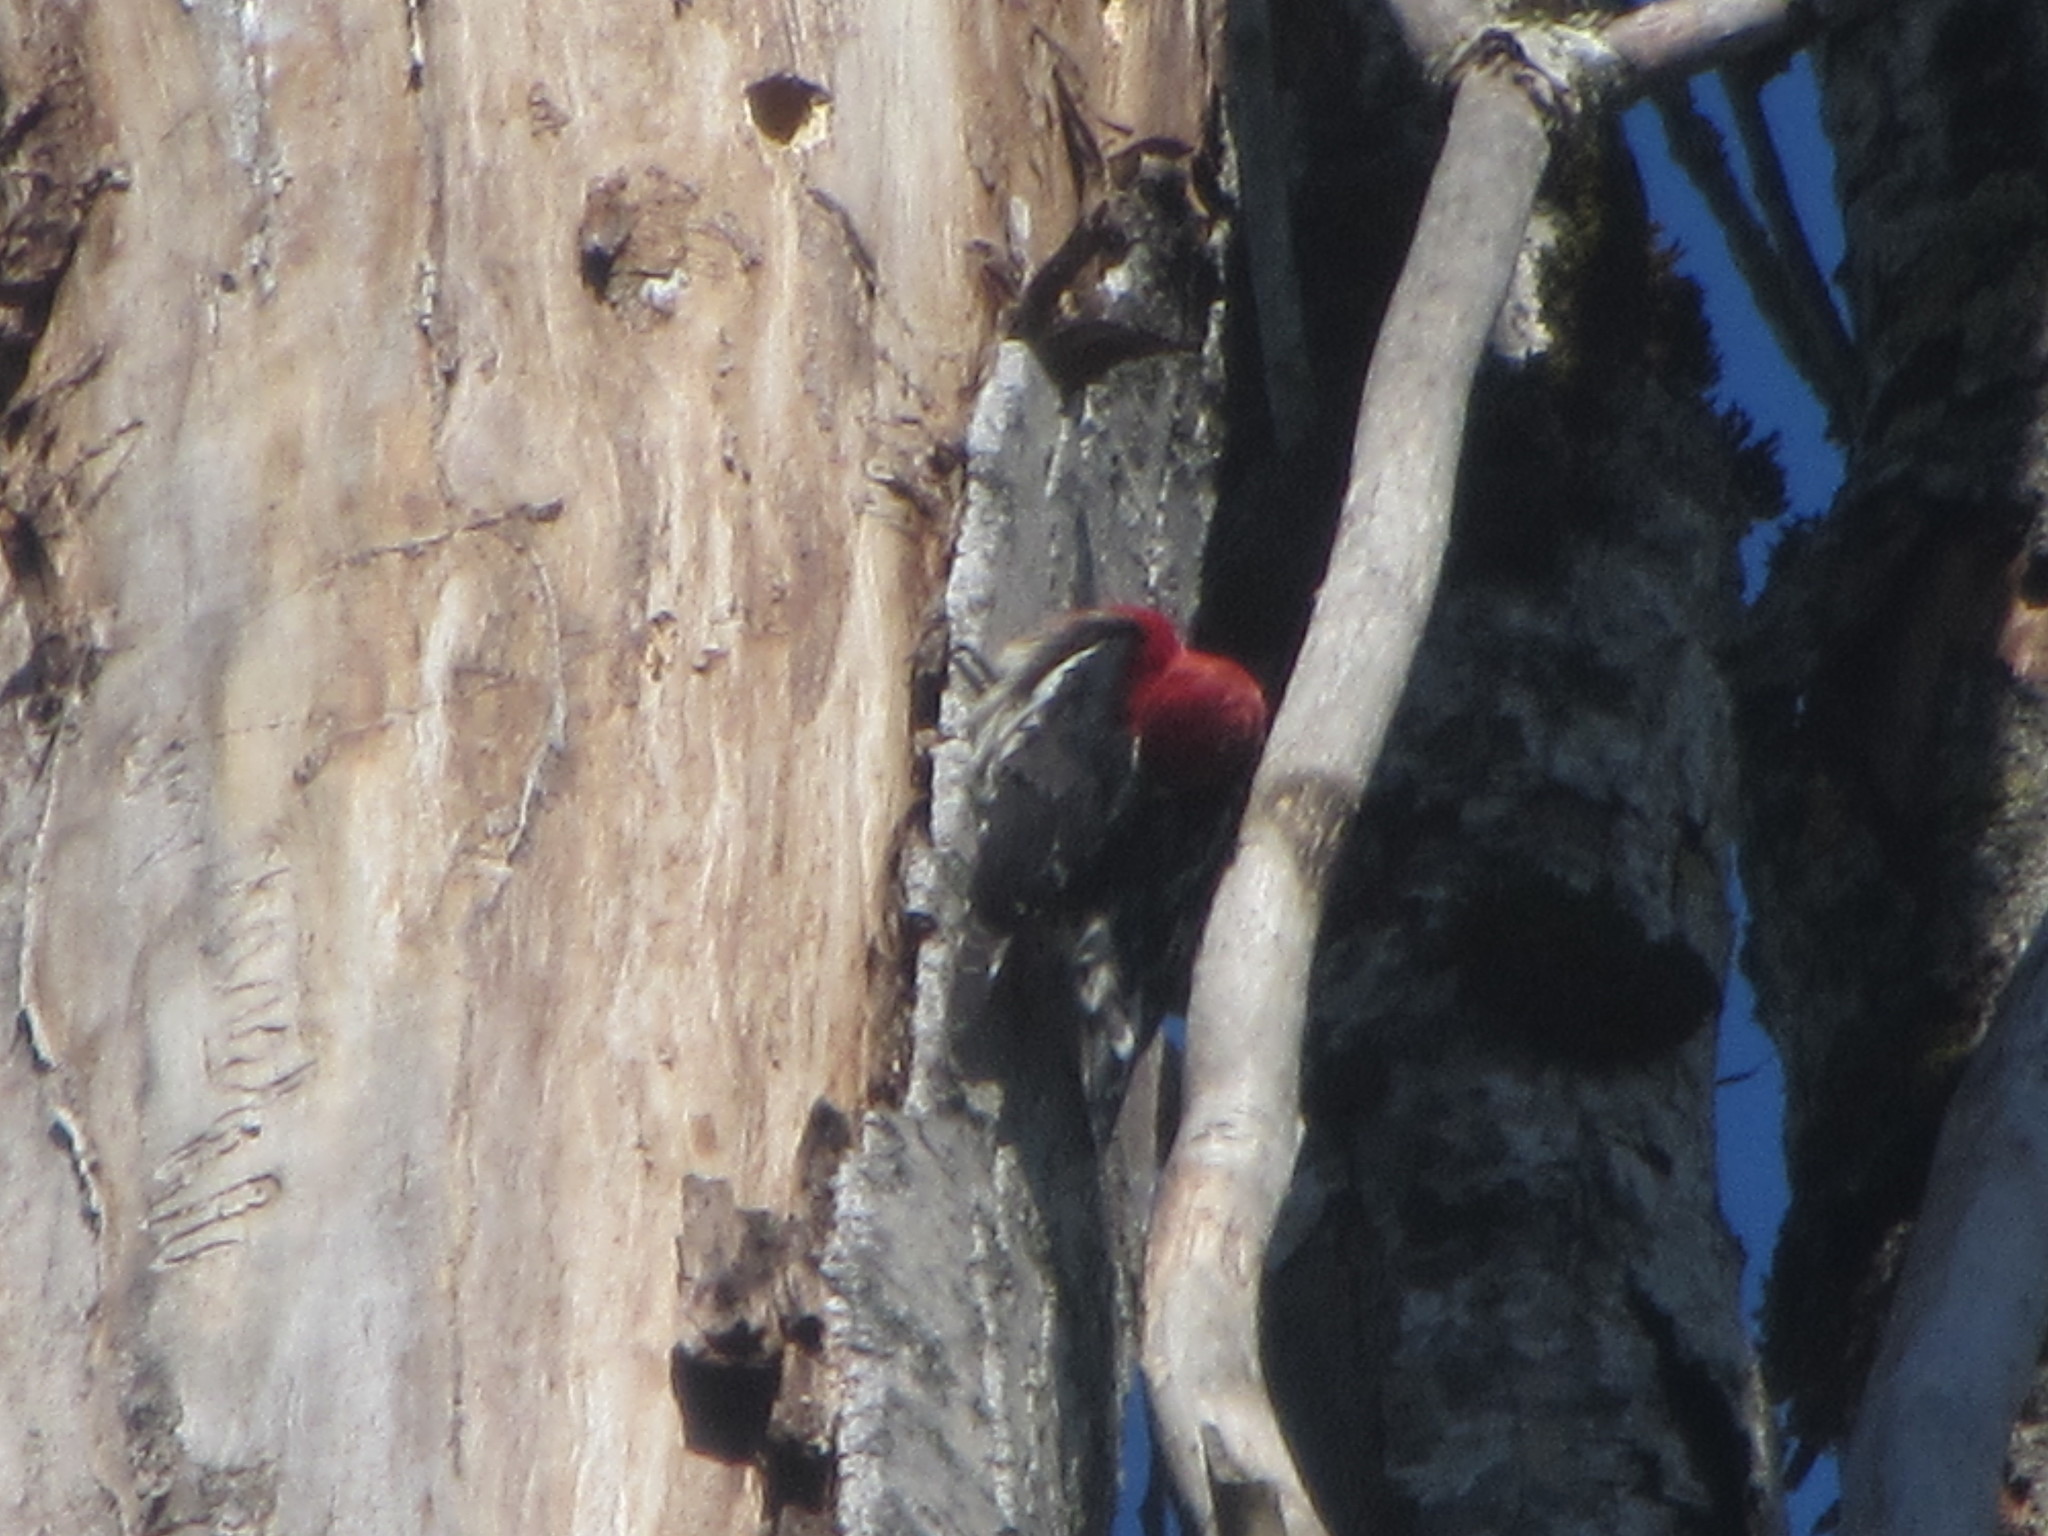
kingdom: Animalia
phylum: Chordata
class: Aves
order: Piciformes
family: Picidae
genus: Sphyrapicus
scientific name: Sphyrapicus ruber
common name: Red-breasted sapsucker
